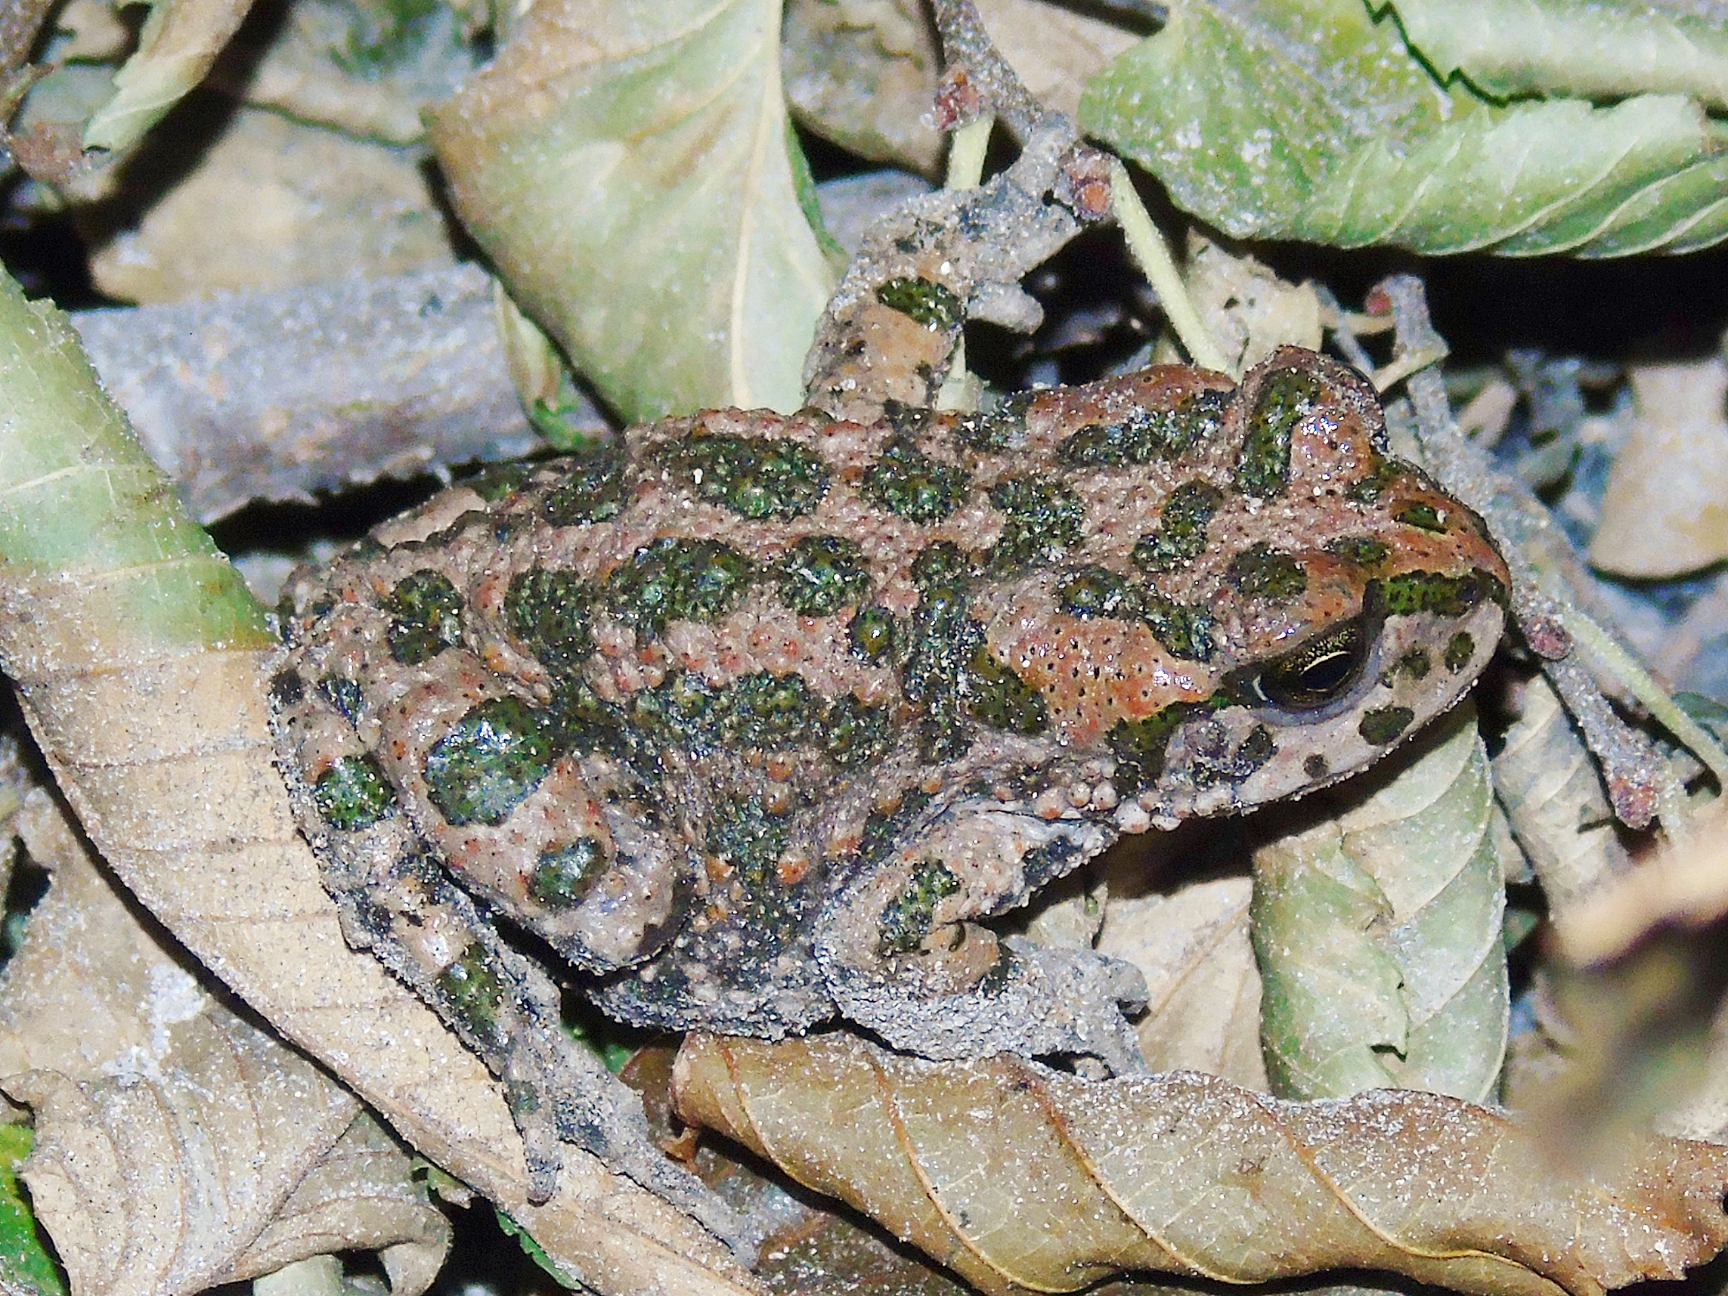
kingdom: Animalia
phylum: Chordata
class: Amphibia
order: Anura
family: Bufonidae
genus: Bufotes
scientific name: Bufotes pewzowi
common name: Xinjiang toad
